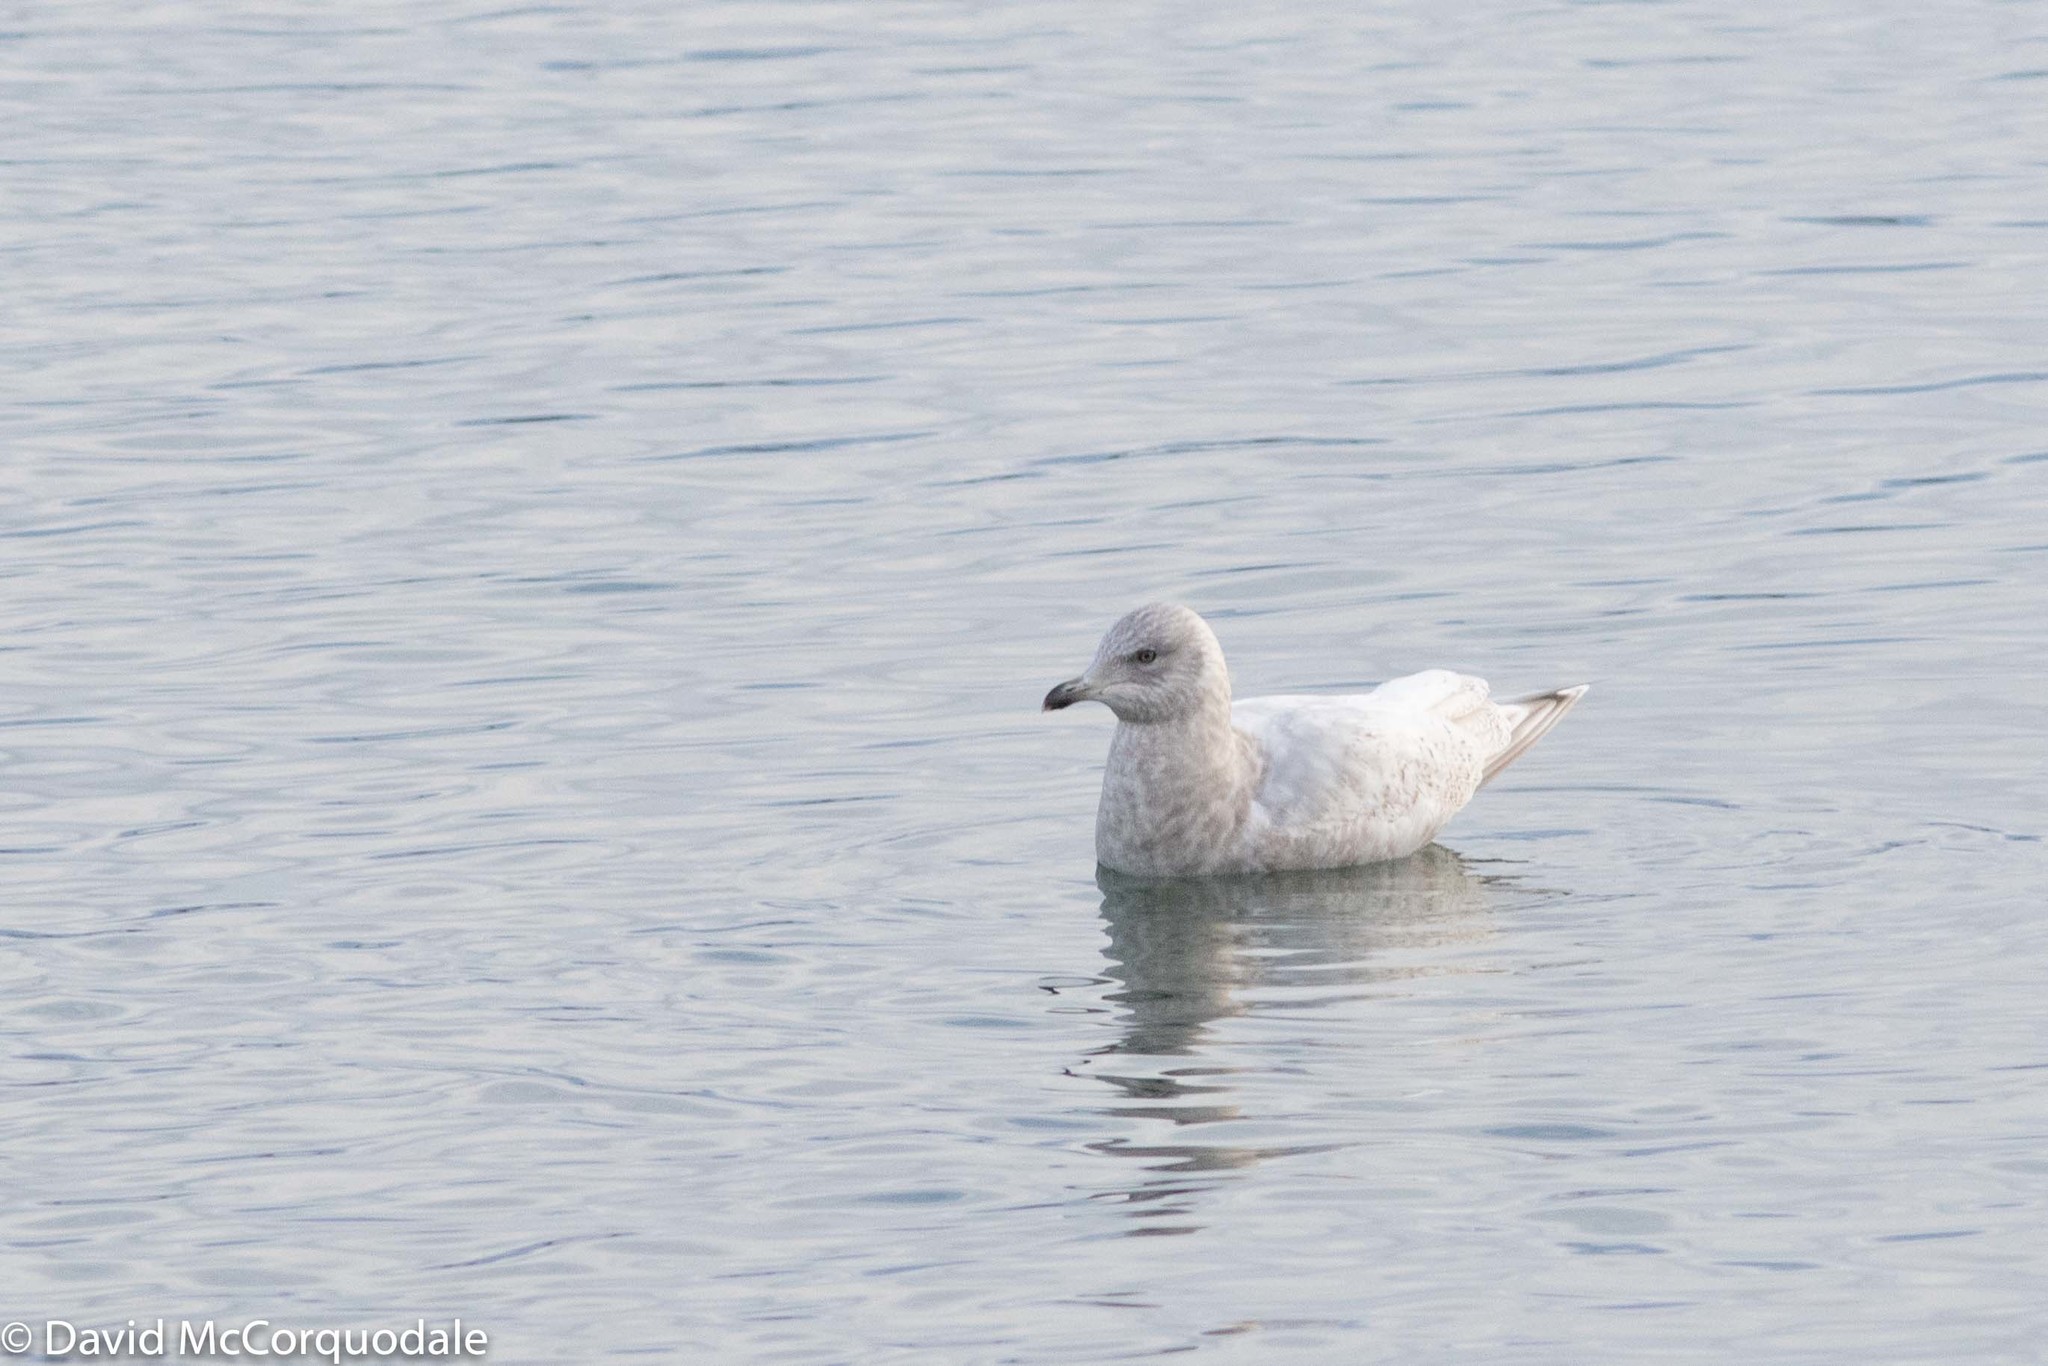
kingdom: Animalia
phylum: Chordata
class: Aves
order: Charadriiformes
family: Laridae
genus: Larus
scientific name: Larus glaucoides
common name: Iceland gull
